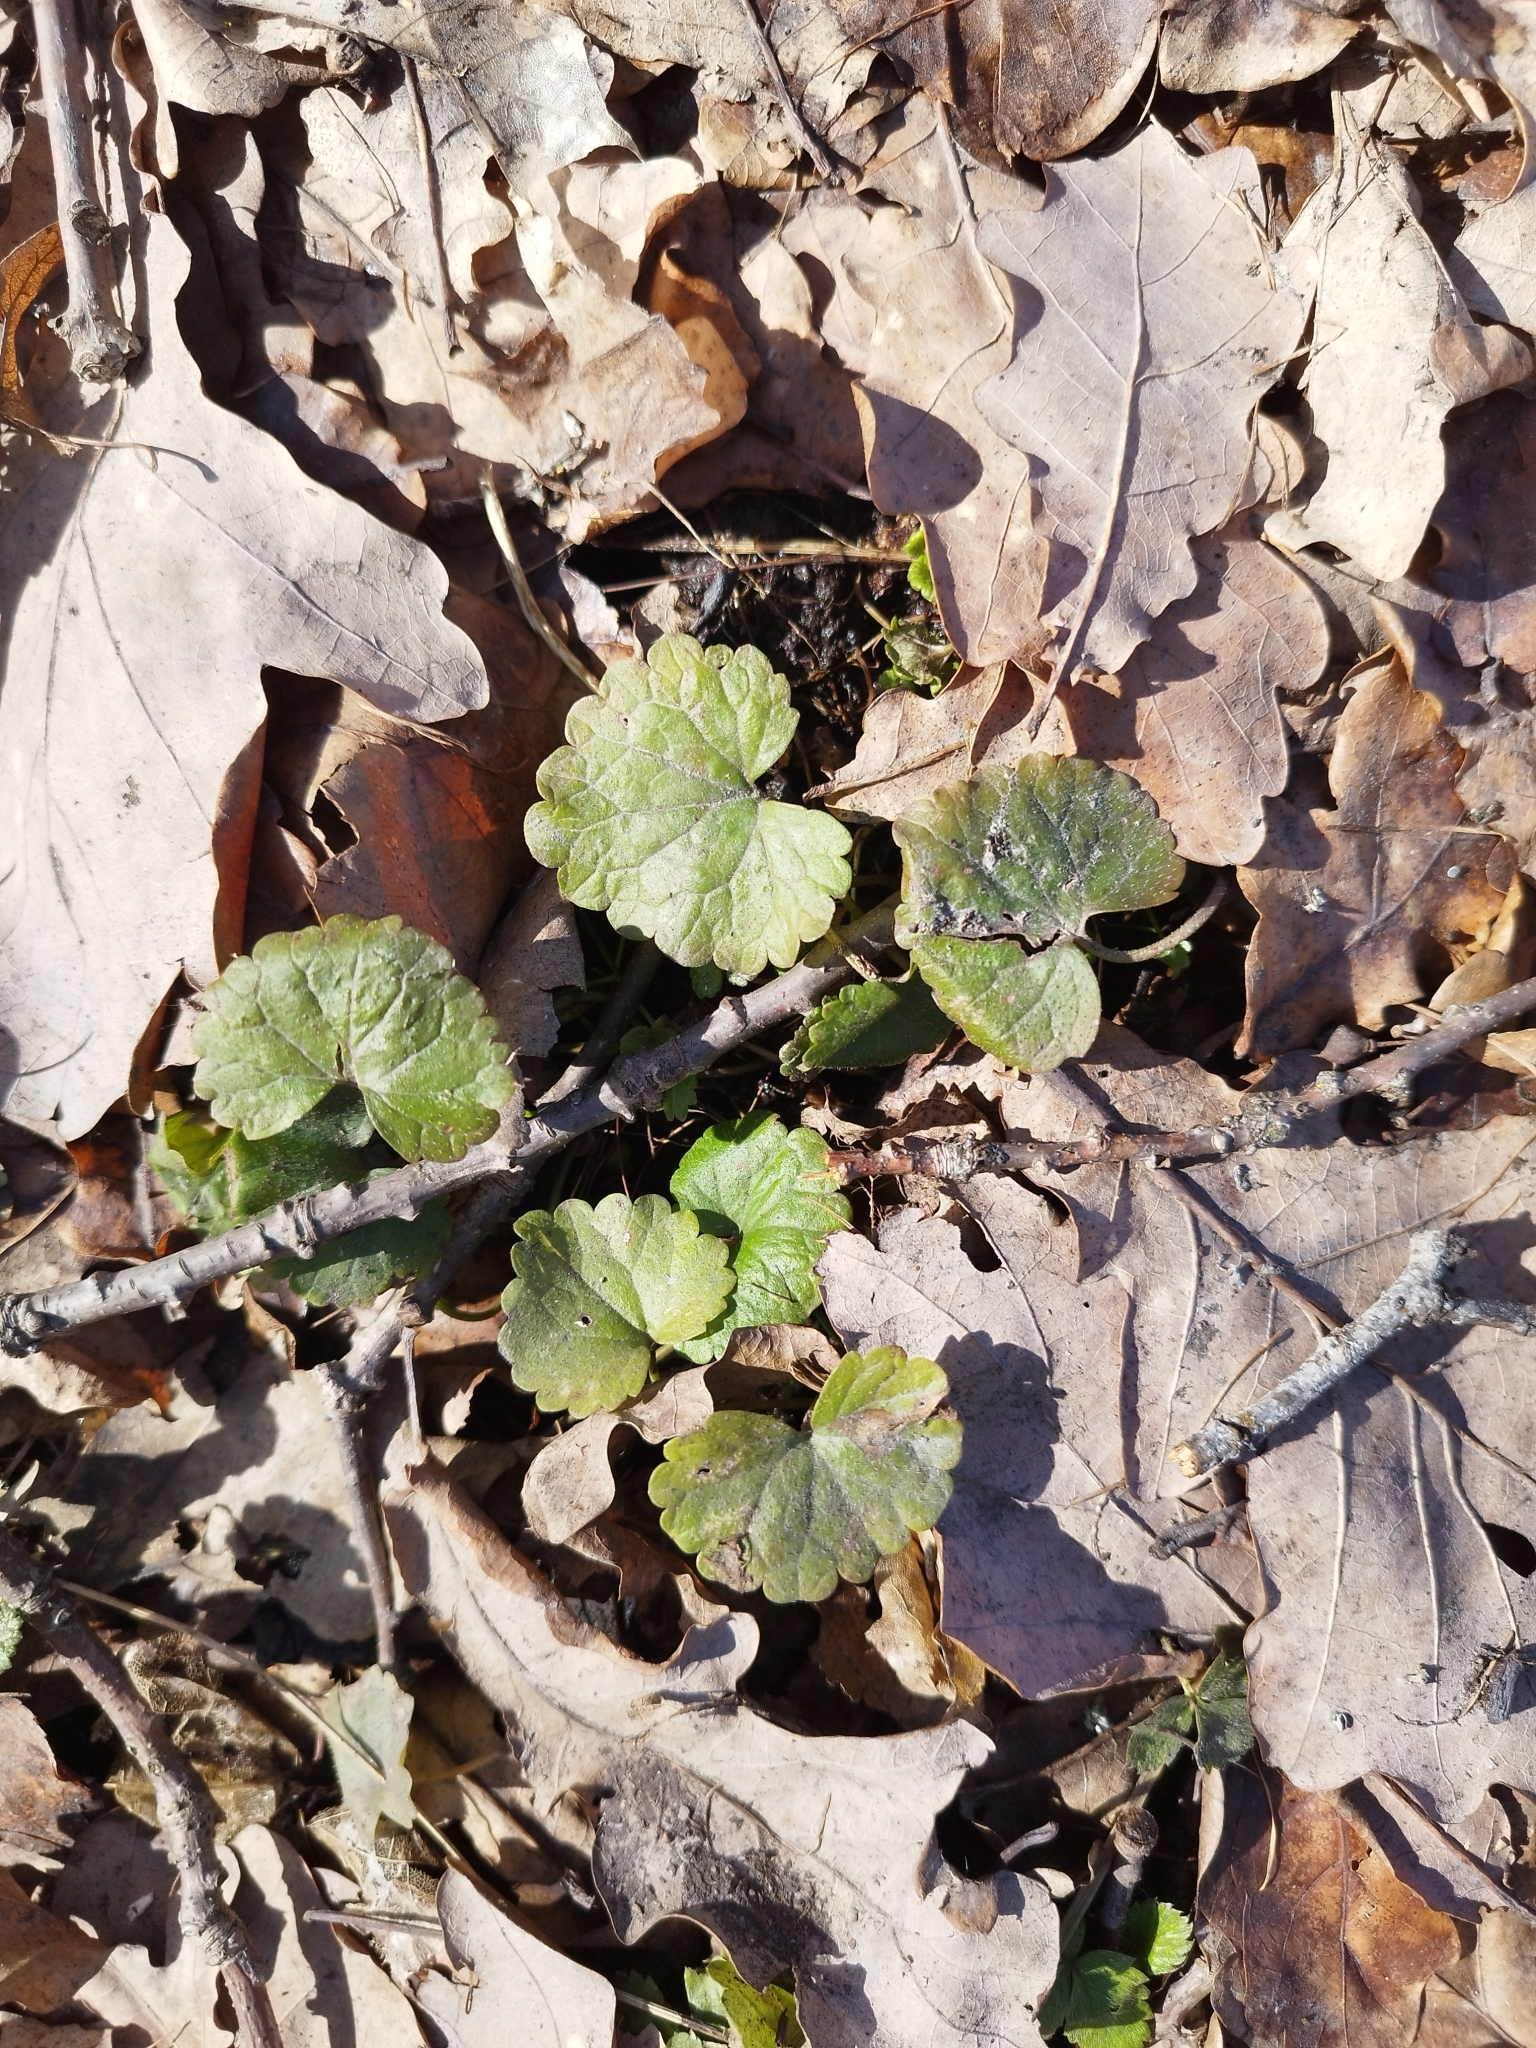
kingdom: Plantae
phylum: Tracheophyta
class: Magnoliopsida
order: Lamiales
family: Lamiaceae
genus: Glechoma
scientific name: Glechoma hederacea
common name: Ground ivy
